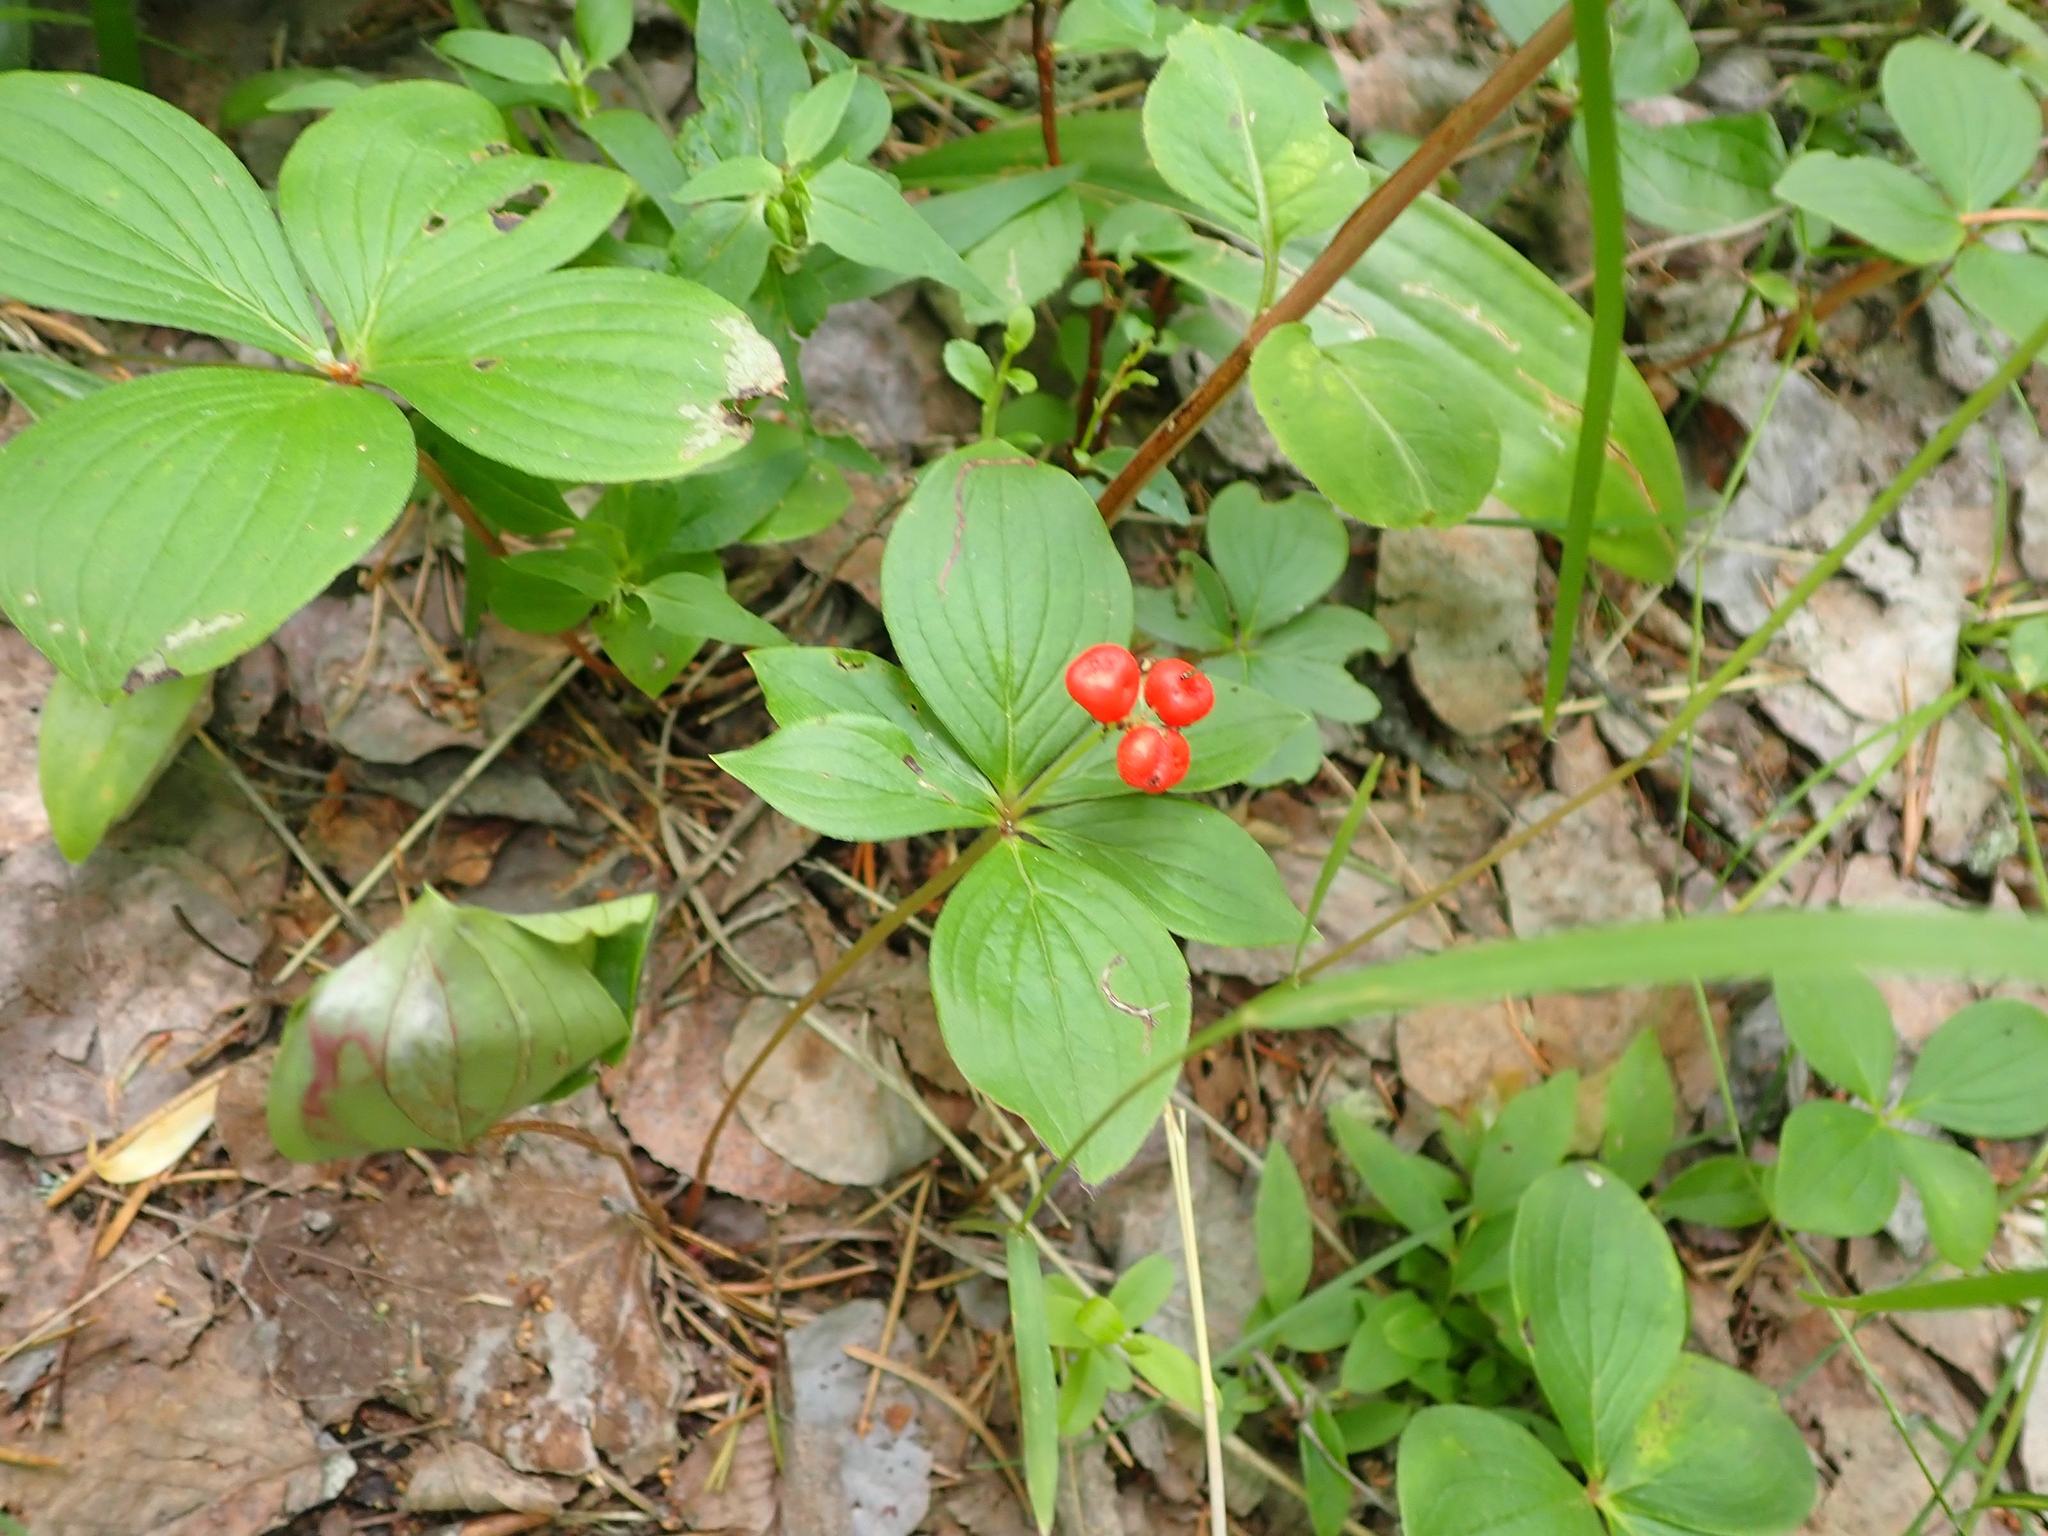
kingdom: Plantae
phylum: Tracheophyta
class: Magnoliopsida
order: Cornales
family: Cornaceae
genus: Cornus
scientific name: Cornus canadensis
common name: Creeping dogwood
